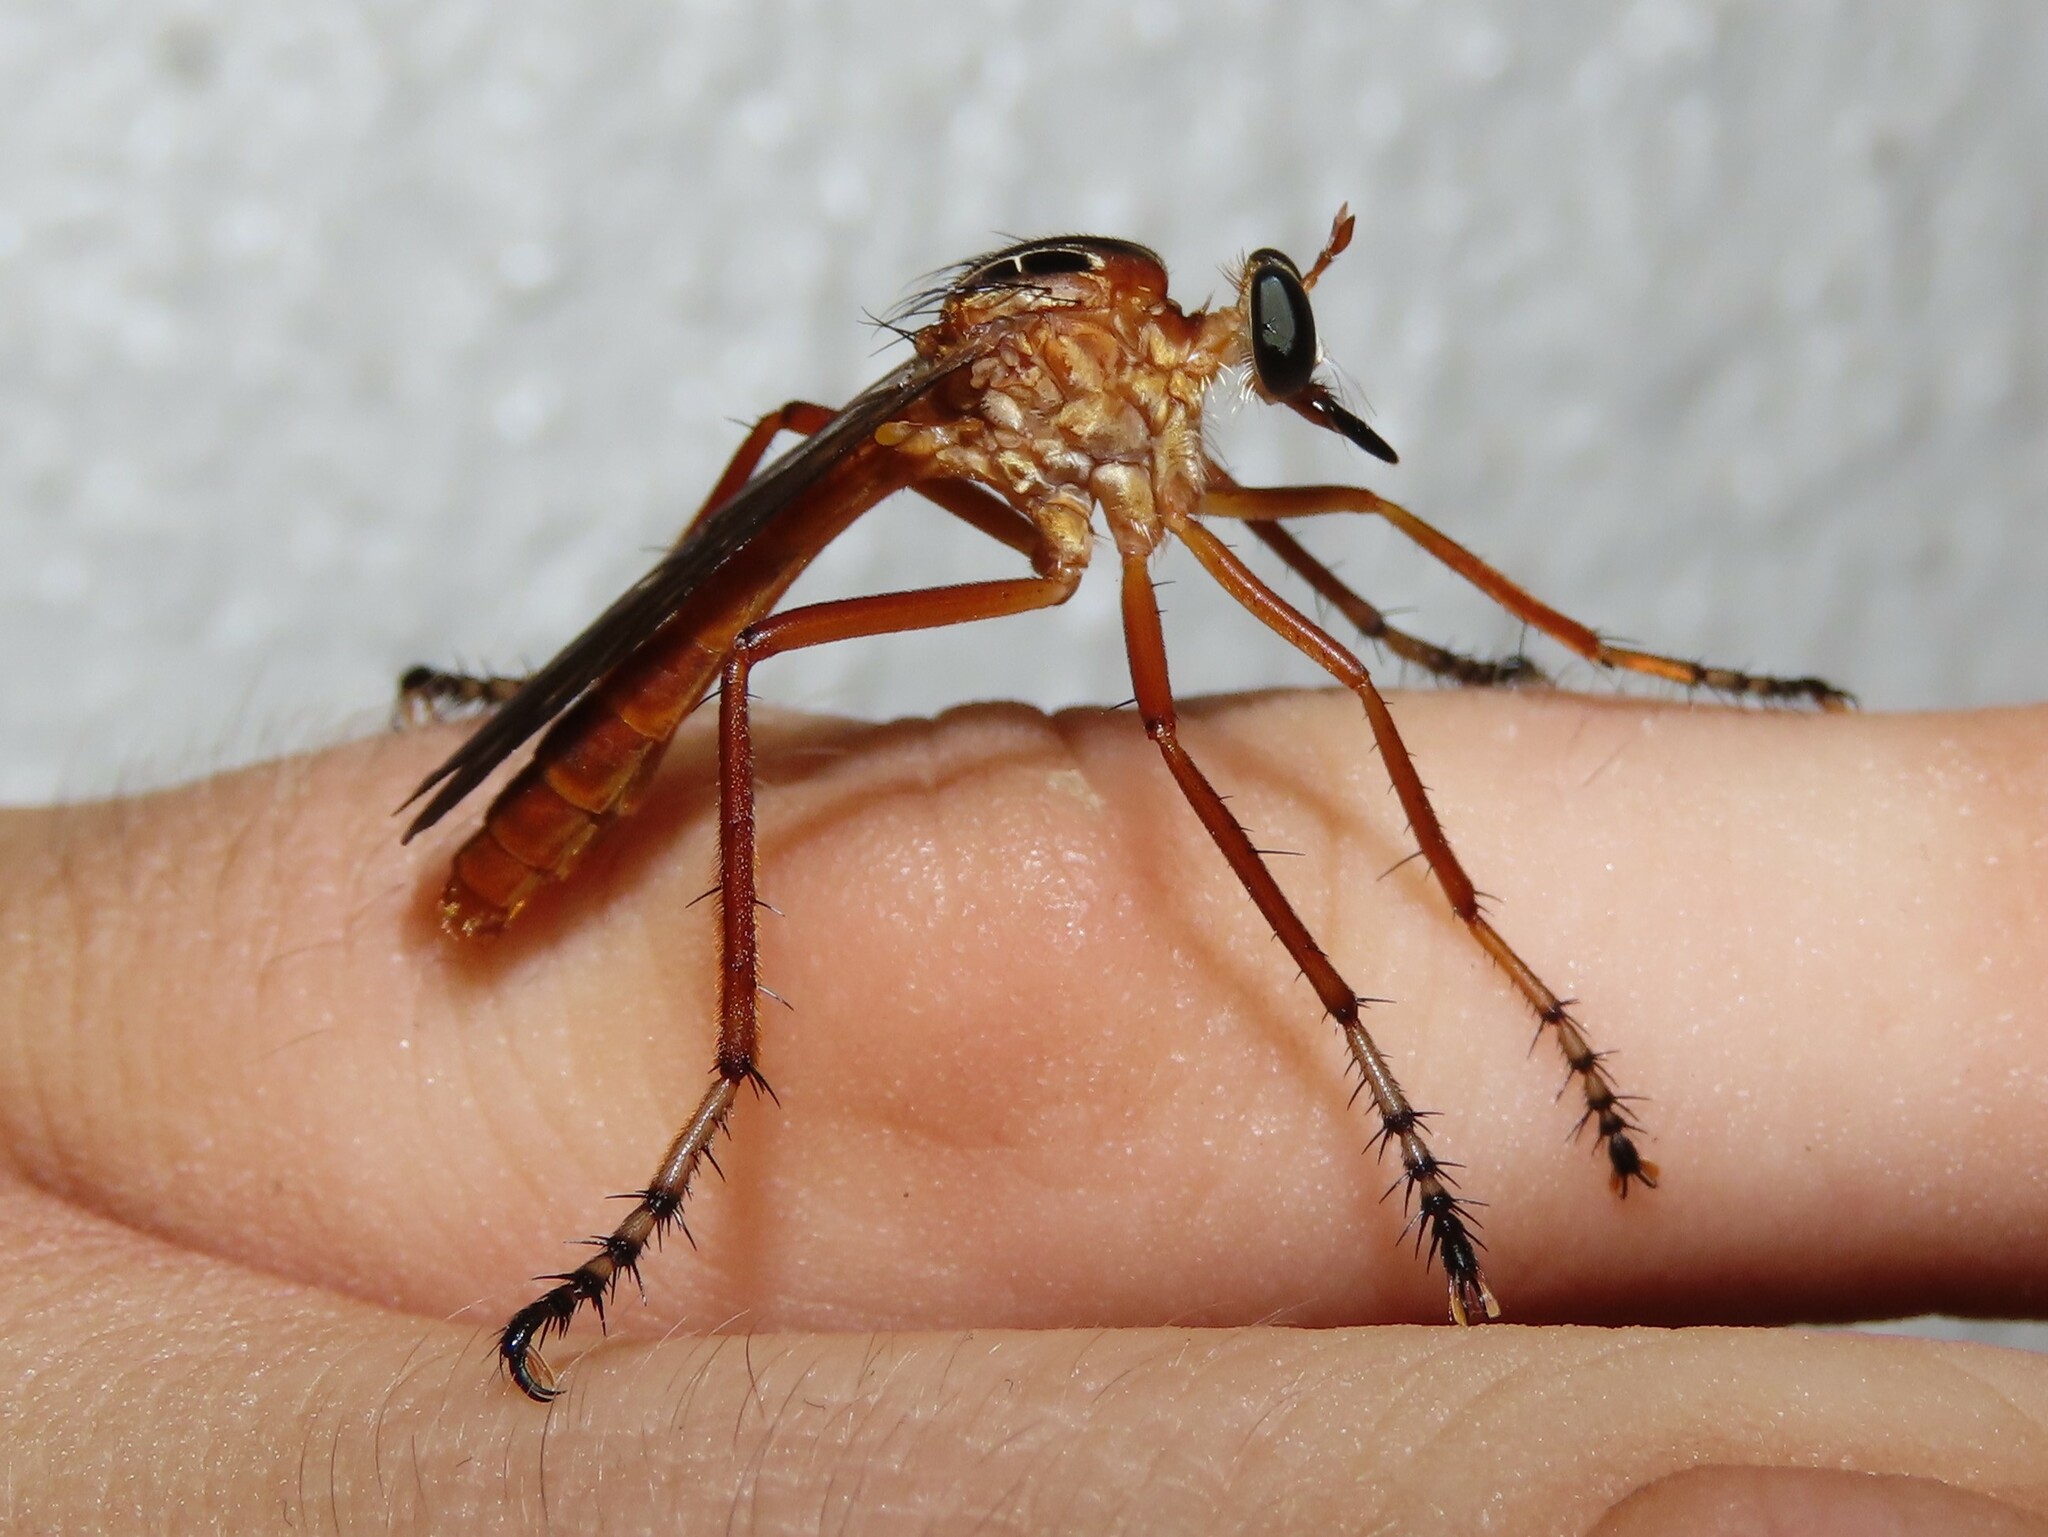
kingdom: Animalia
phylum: Arthropoda
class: Insecta
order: Diptera
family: Asilidae
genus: Diogmites
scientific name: Diogmites neoternatus
